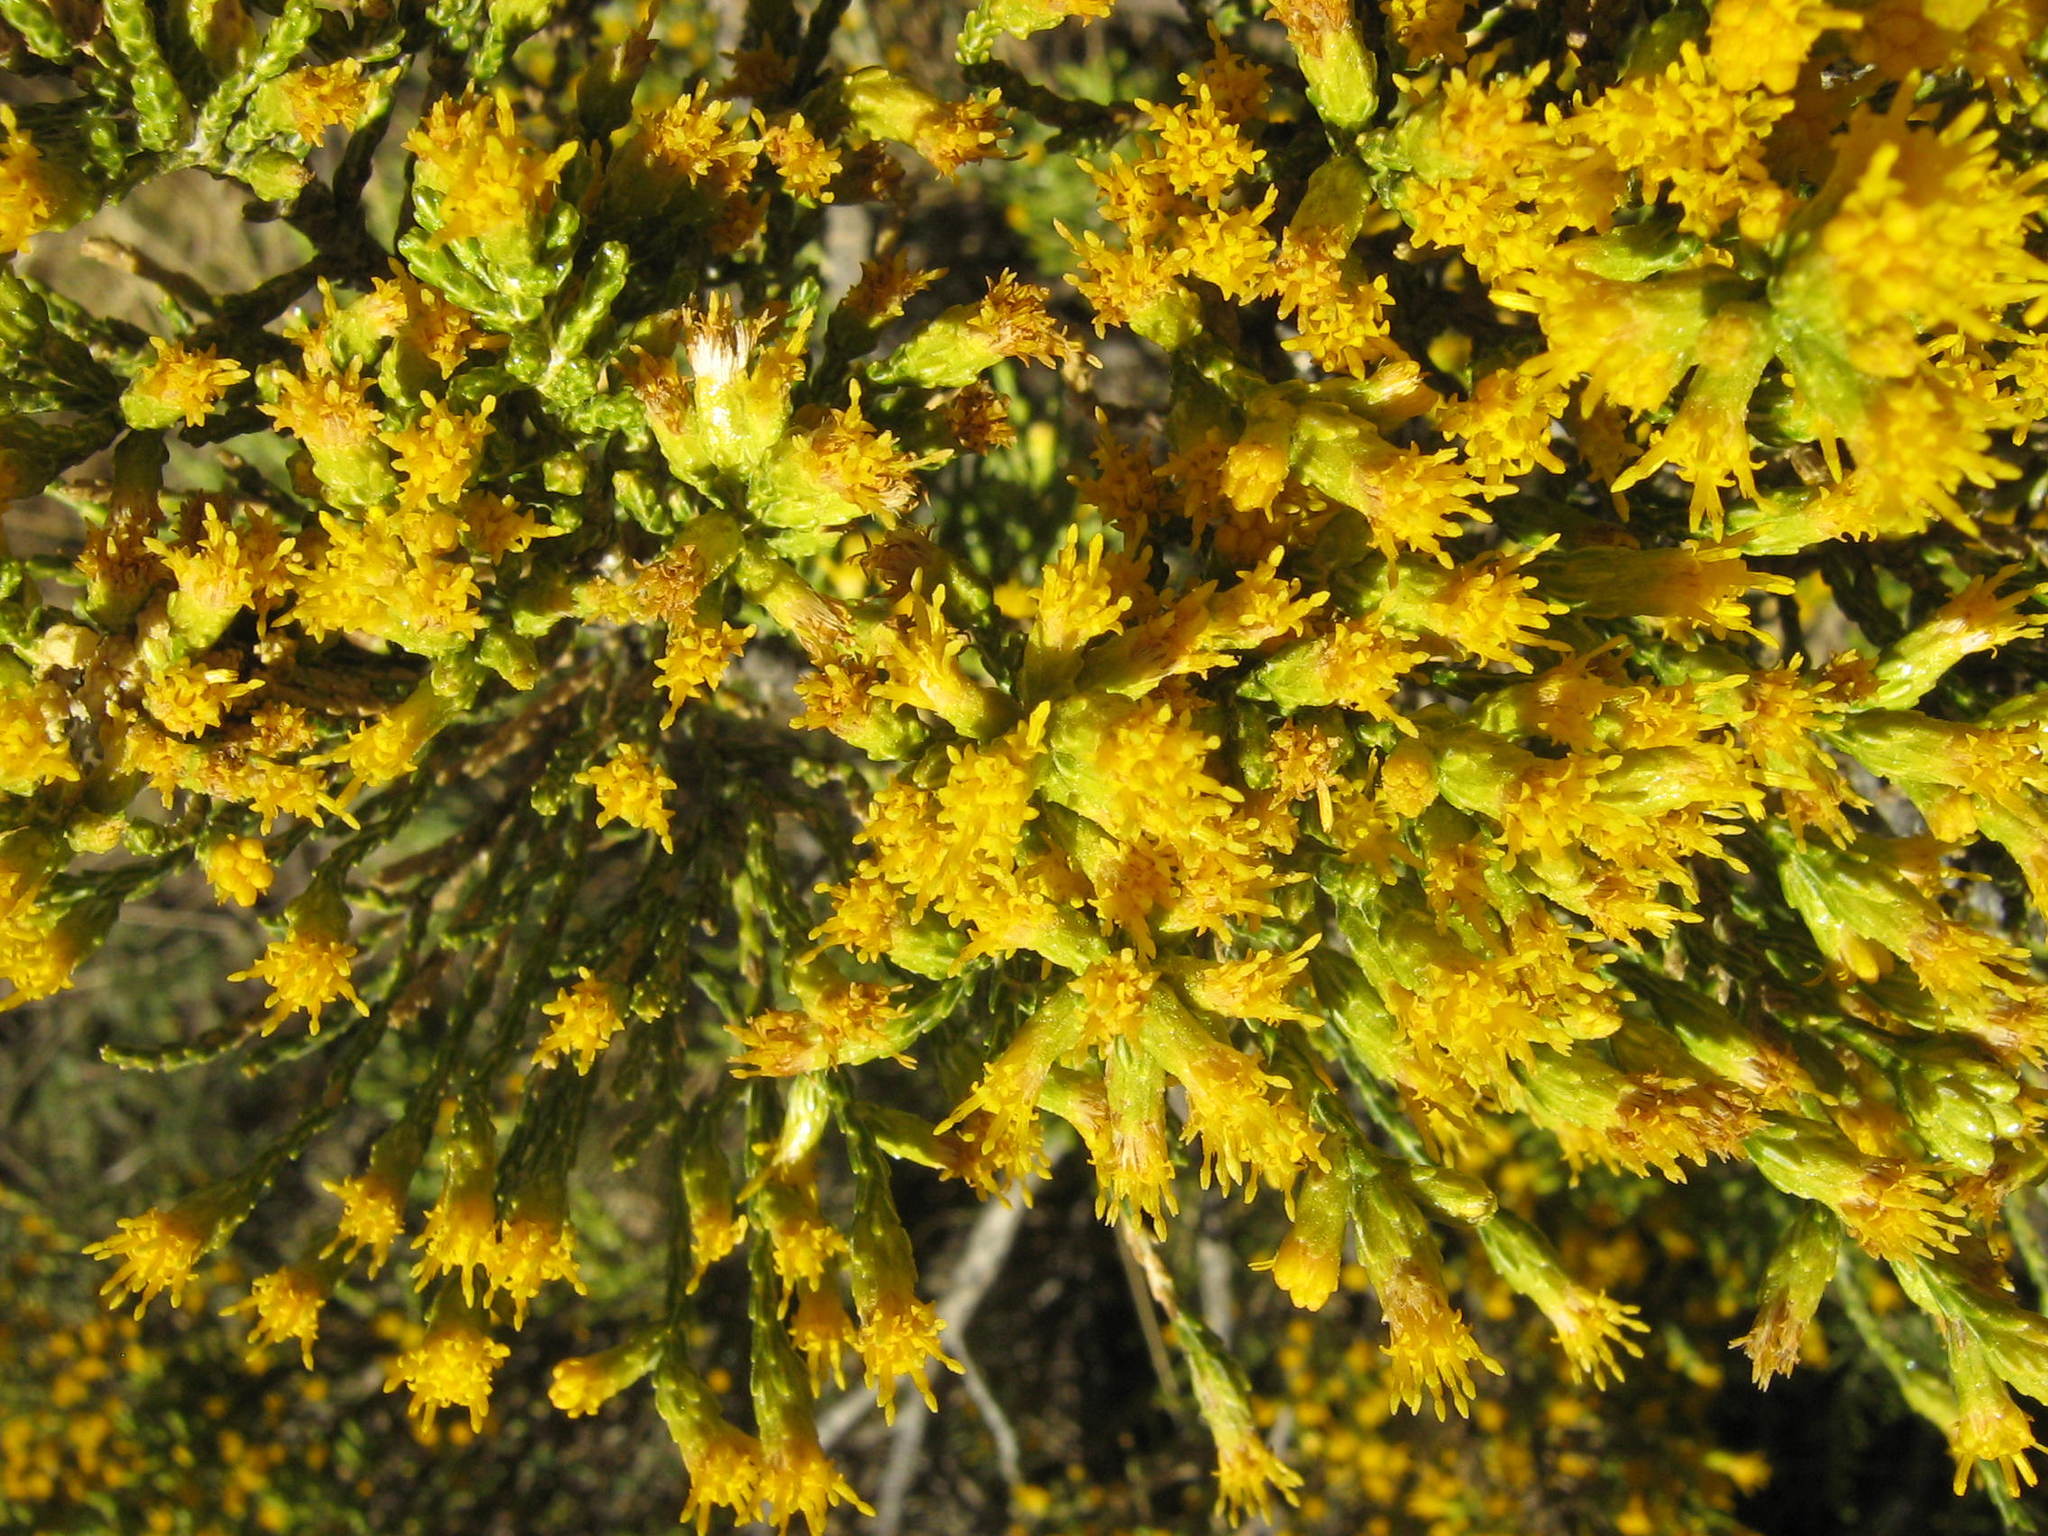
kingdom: Plantae
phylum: Tracheophyta
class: Magnoliopsida
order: Asterales
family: Asteraceae
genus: Parastrephia
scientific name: Parastrephia quadrangularis
